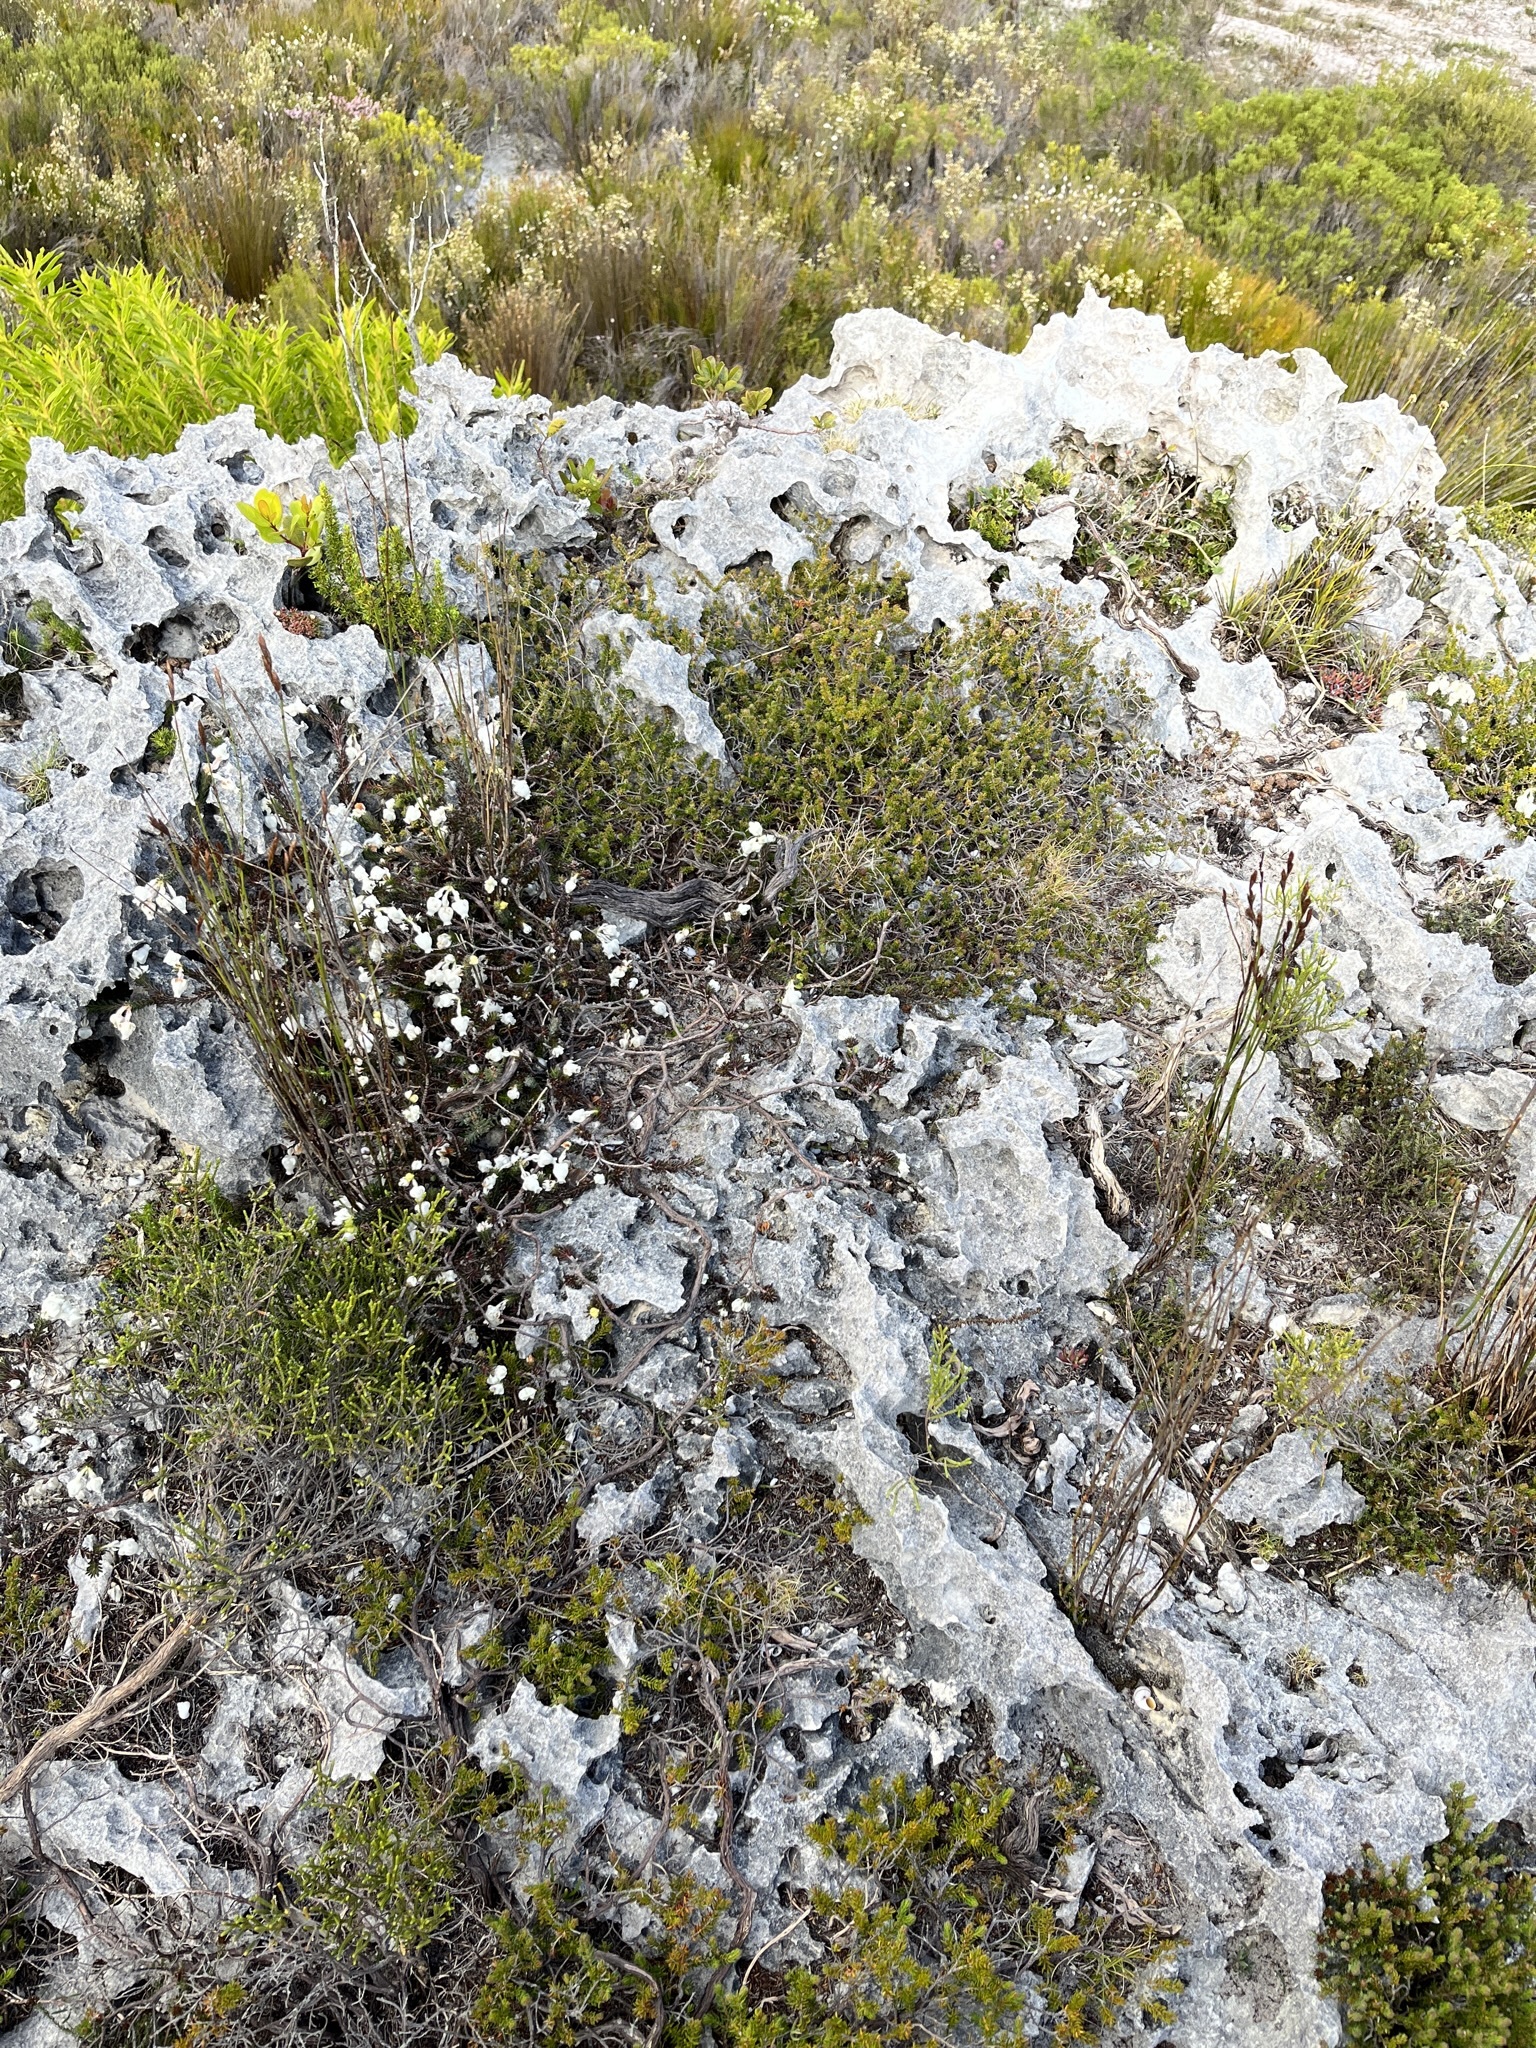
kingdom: Plantae
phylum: Tracheophyta
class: Magnoliopsida
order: Ericales
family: Ericaceae
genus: Erica
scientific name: Erica calcareophila
